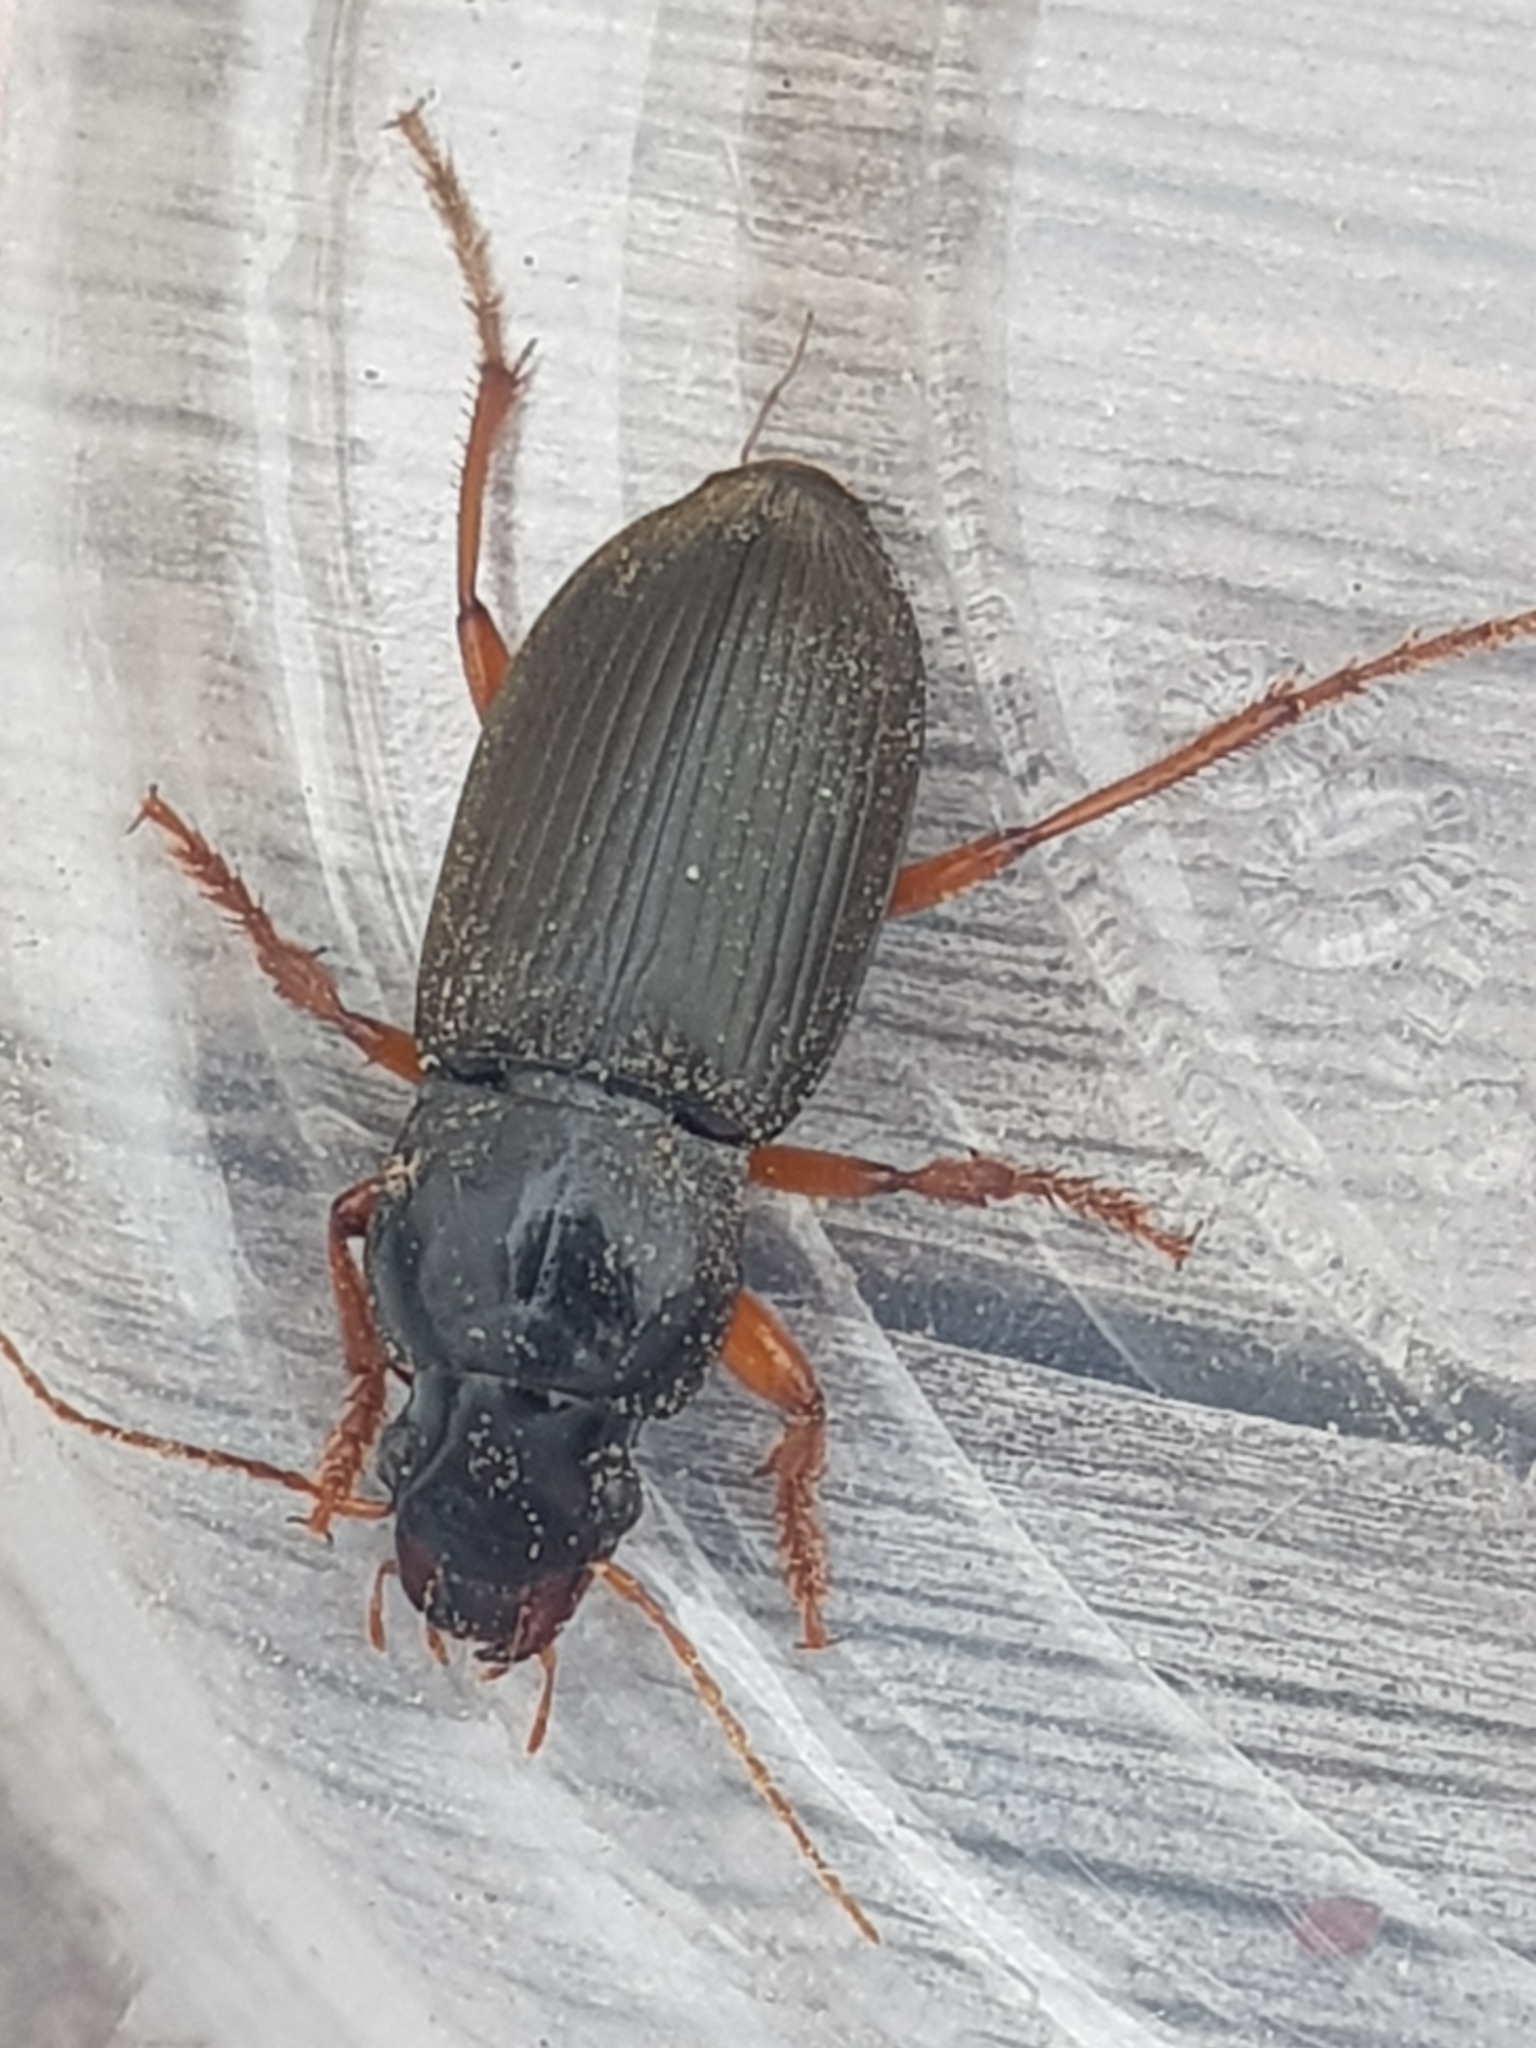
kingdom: Animalia
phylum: Arthropoda
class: Insecta
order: Coleoptera
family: Carabidae
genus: Harpalus
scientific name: Harpalus rufipes
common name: Strawberry harp ground beetle
